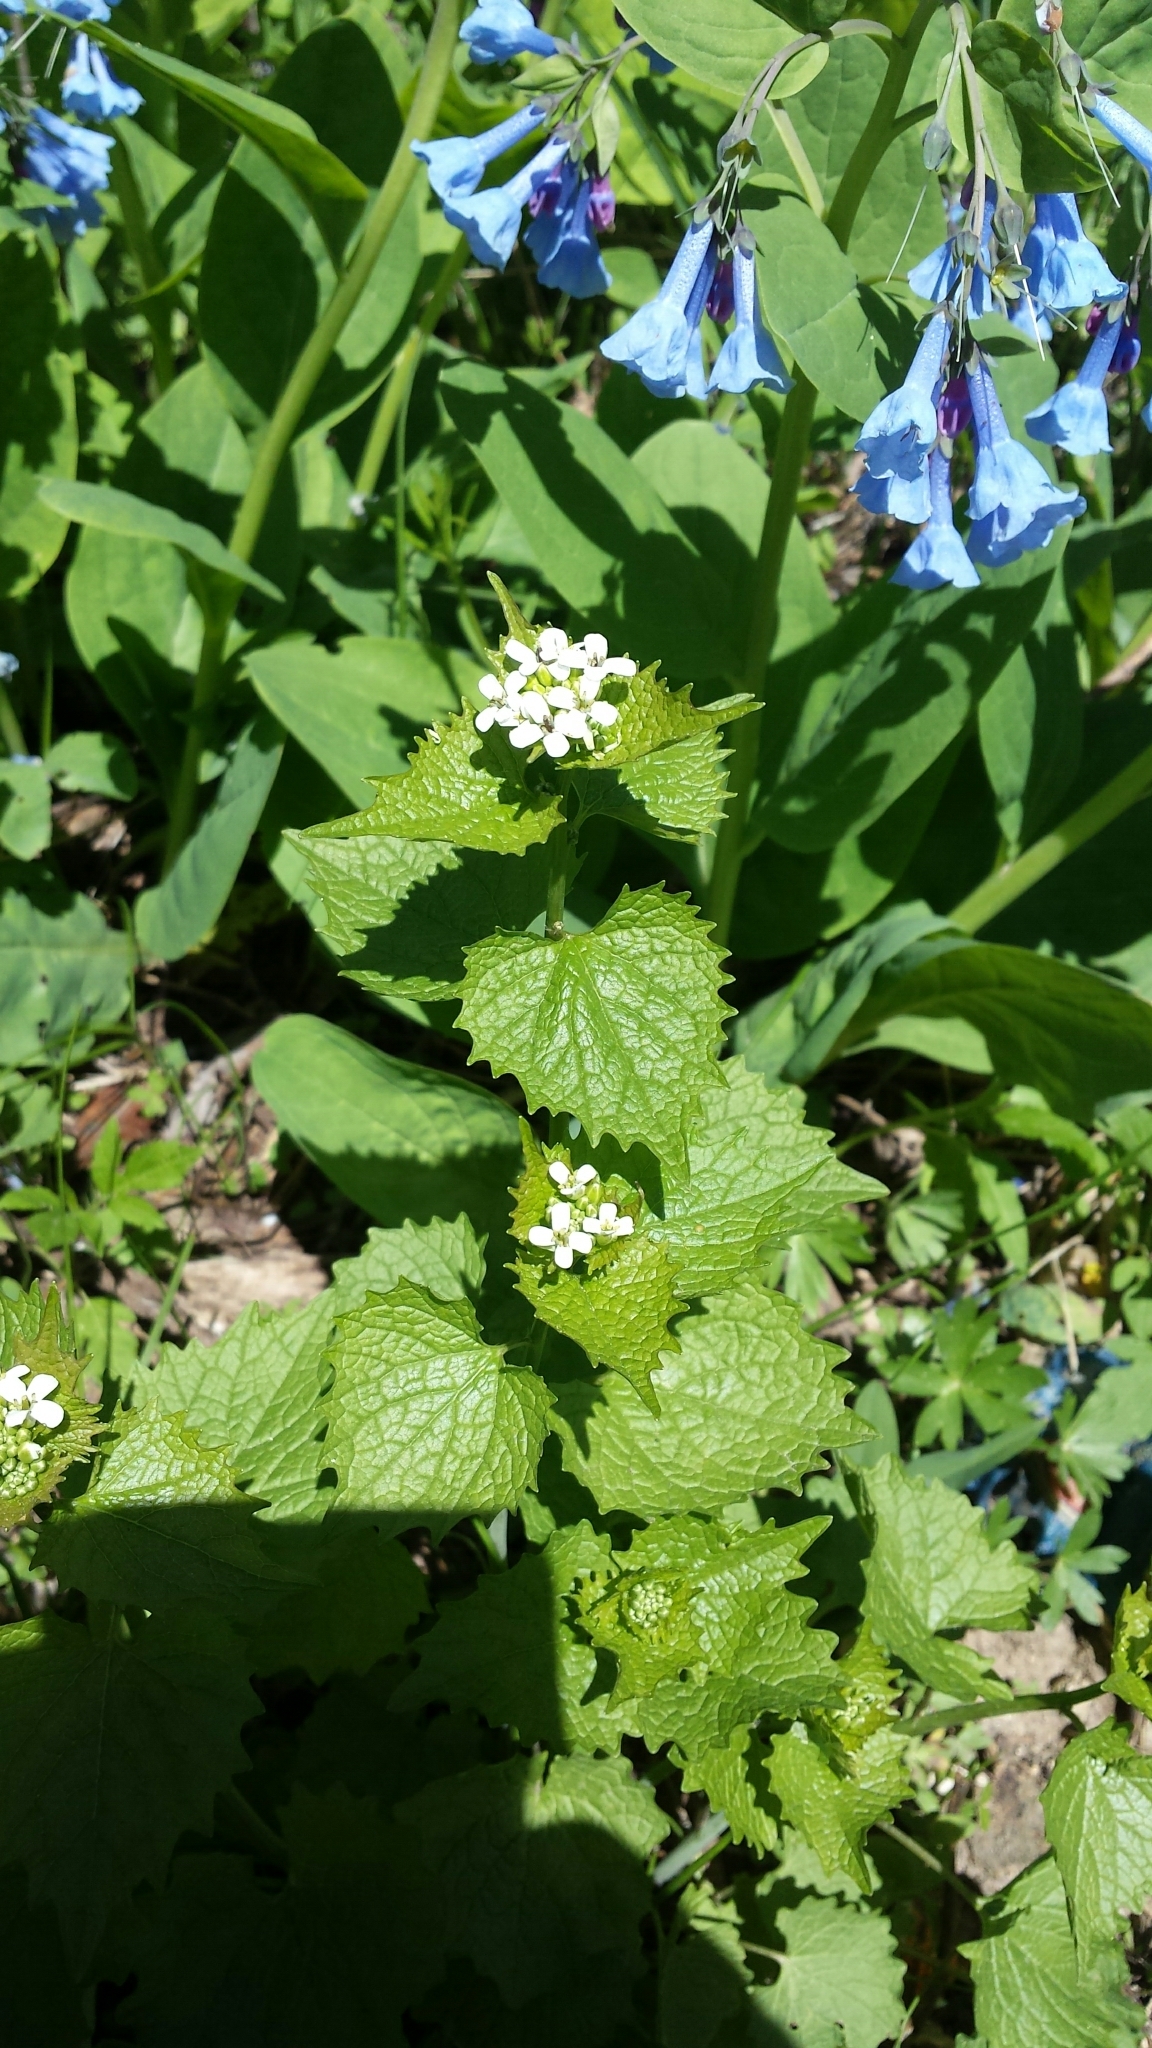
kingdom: Plantae
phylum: Tracheophyta
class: Magnoliopsida
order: Brassicales
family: Brassicaceae
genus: Alliaria
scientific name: Alliaria petiolata
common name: Garlic mustard
